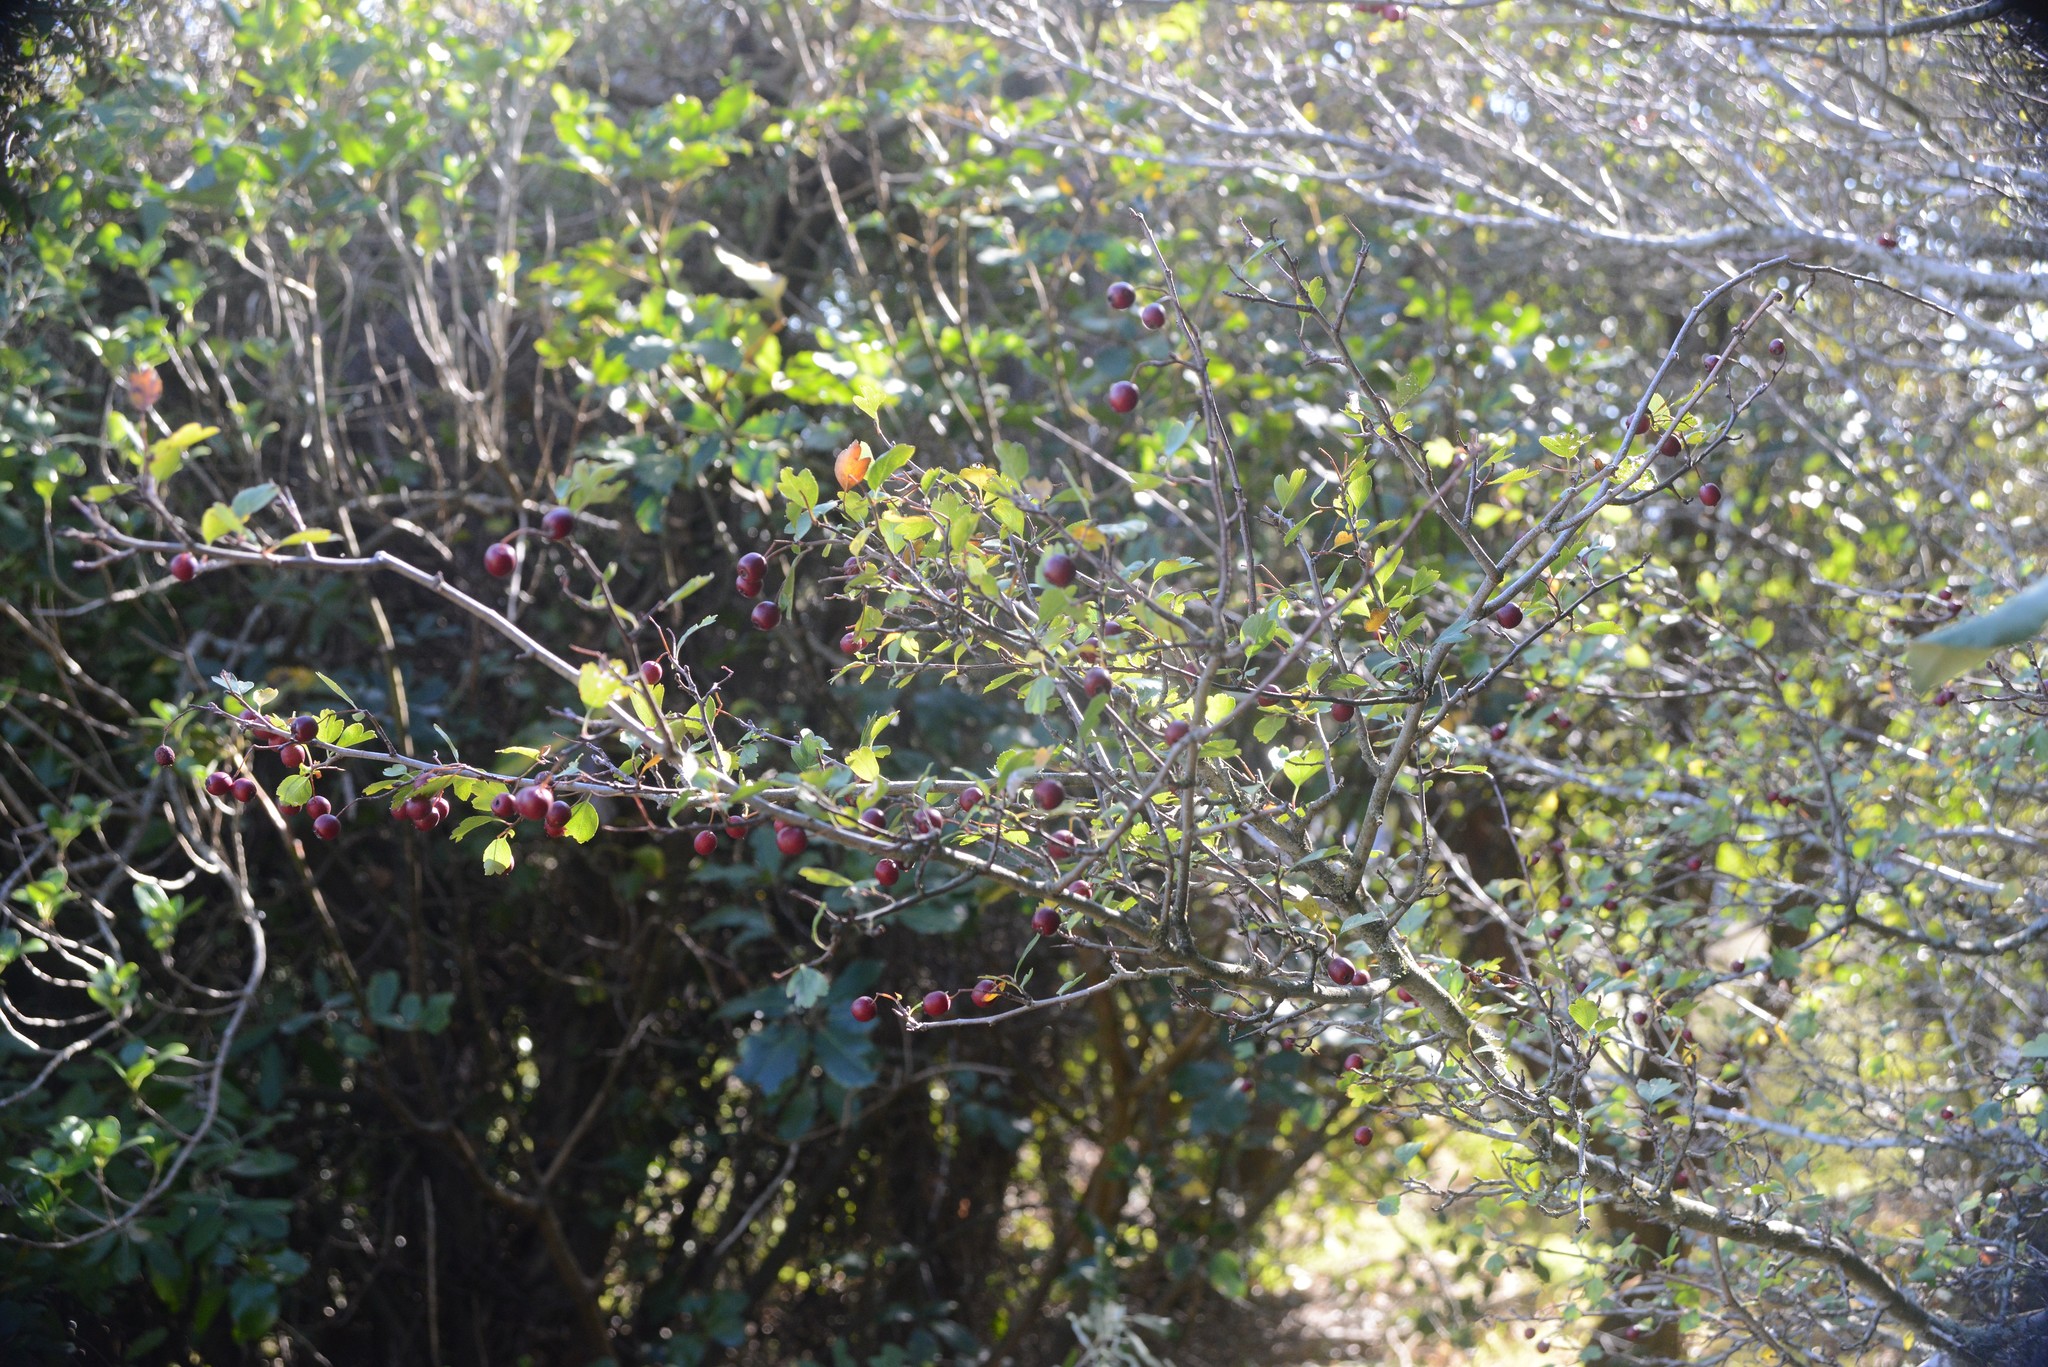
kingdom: Plantae
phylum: Tracheophyta
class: Magnoliopsida
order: Rosales
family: Rosaceae
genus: Crataegus
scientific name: Crataegus monogyna
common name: Hawthorn
